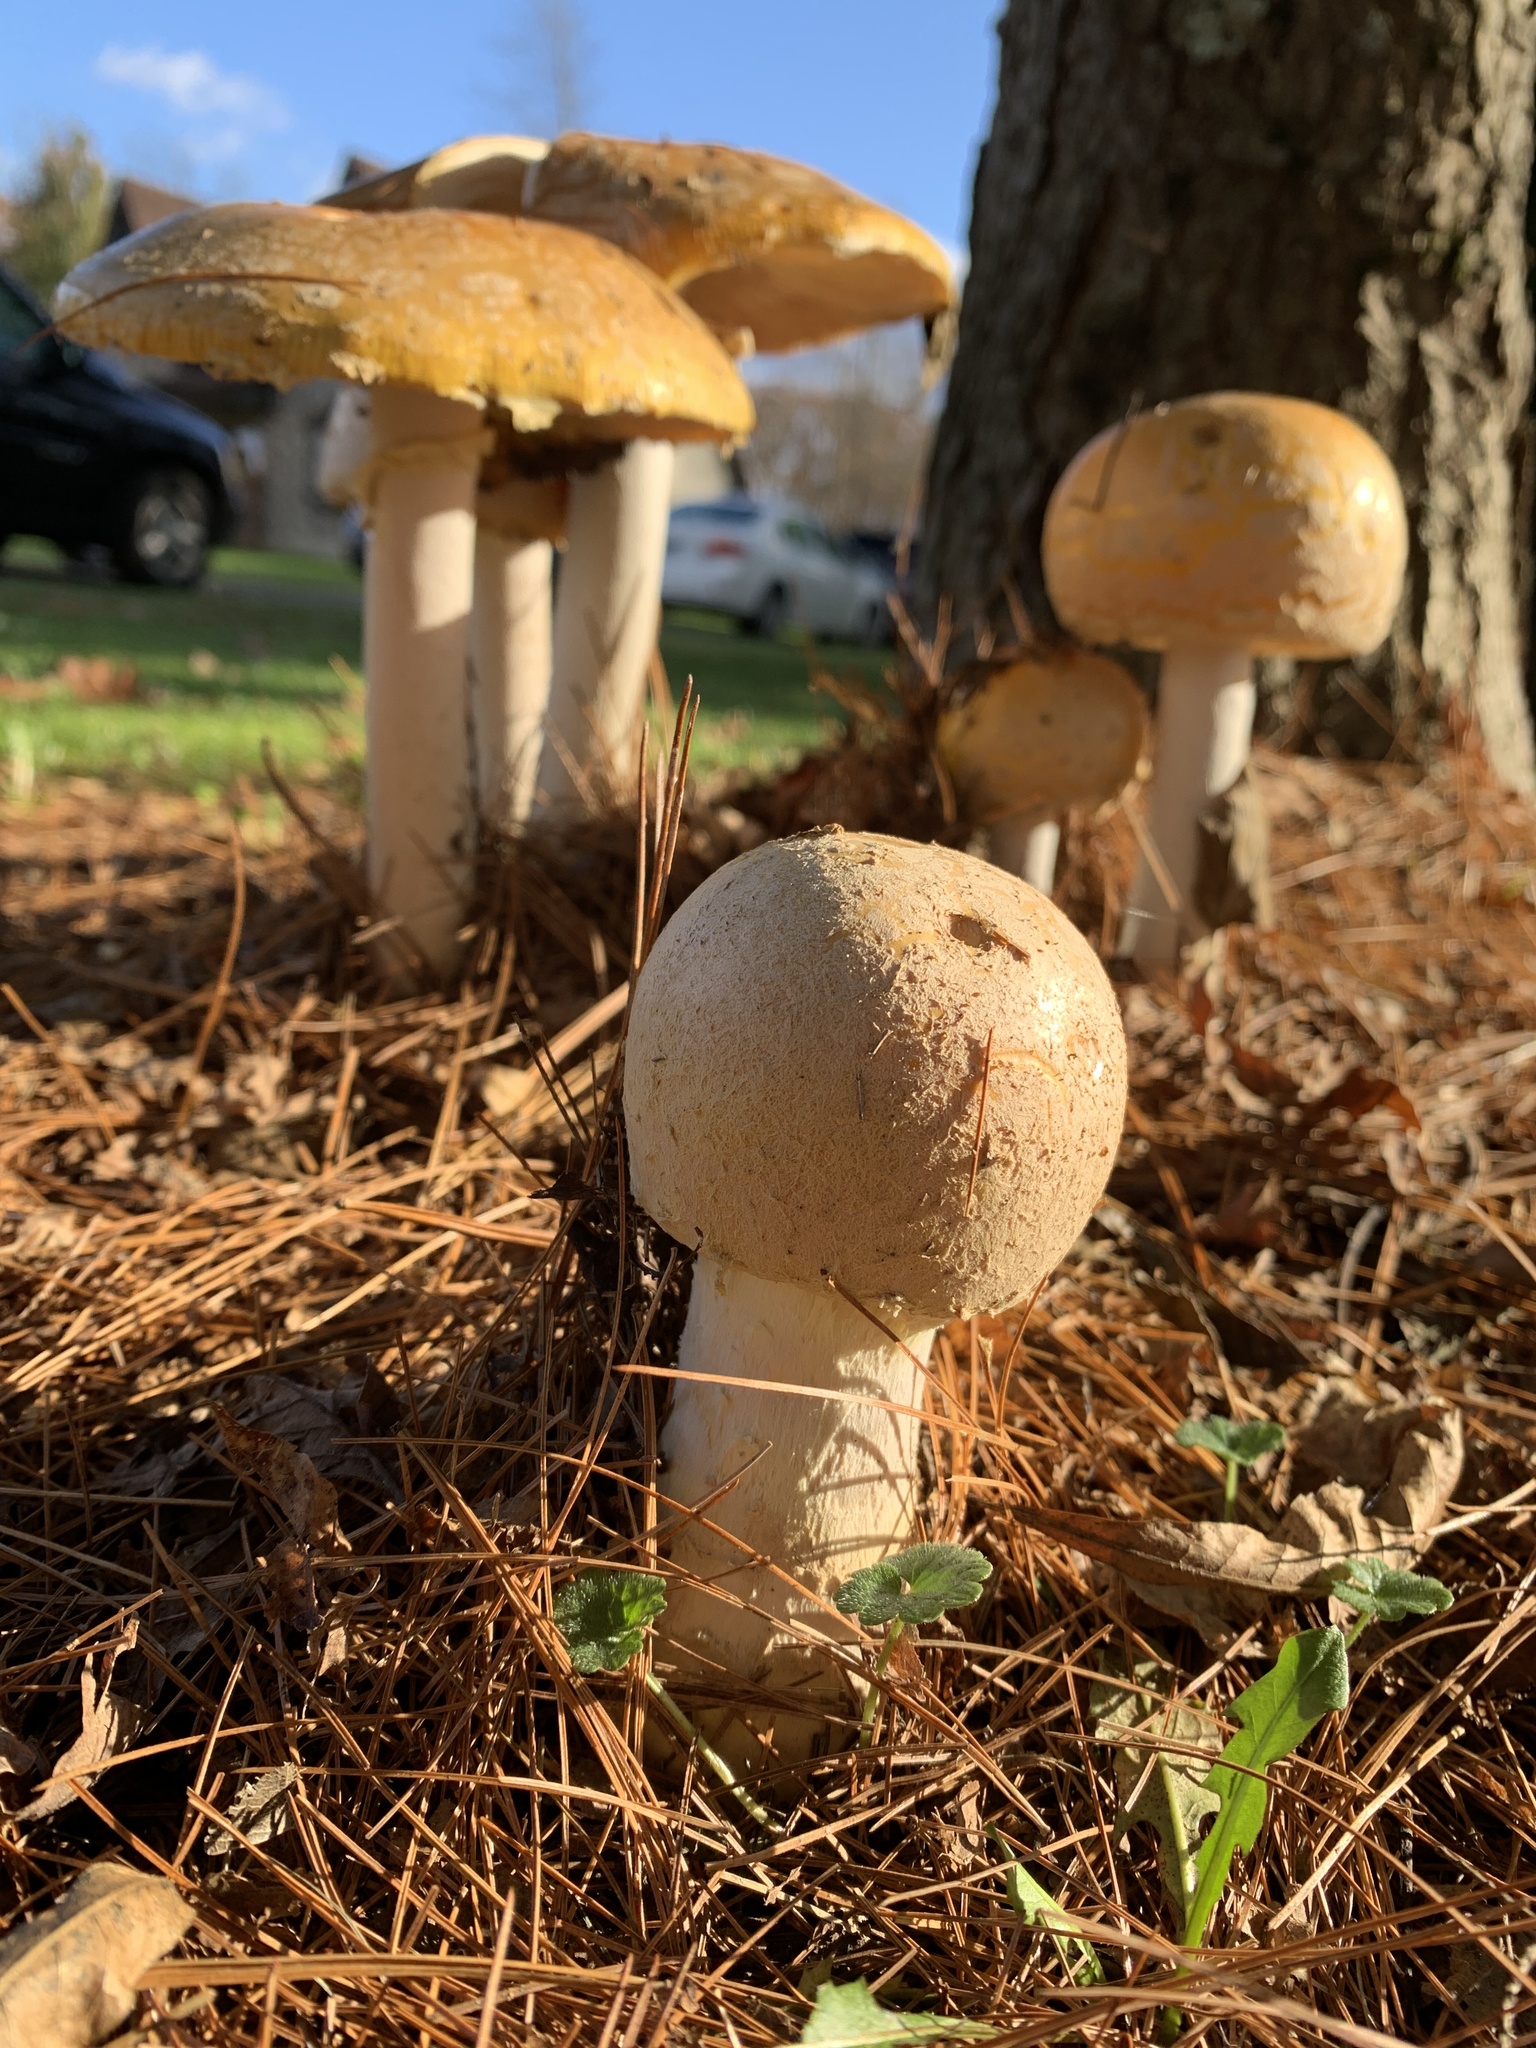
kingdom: Fungi
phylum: Basidiomycota
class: Agaricomycetes
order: Agaricales
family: Amanitaceae
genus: Amanita
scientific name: Amanita muscaria
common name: Fly agaric
